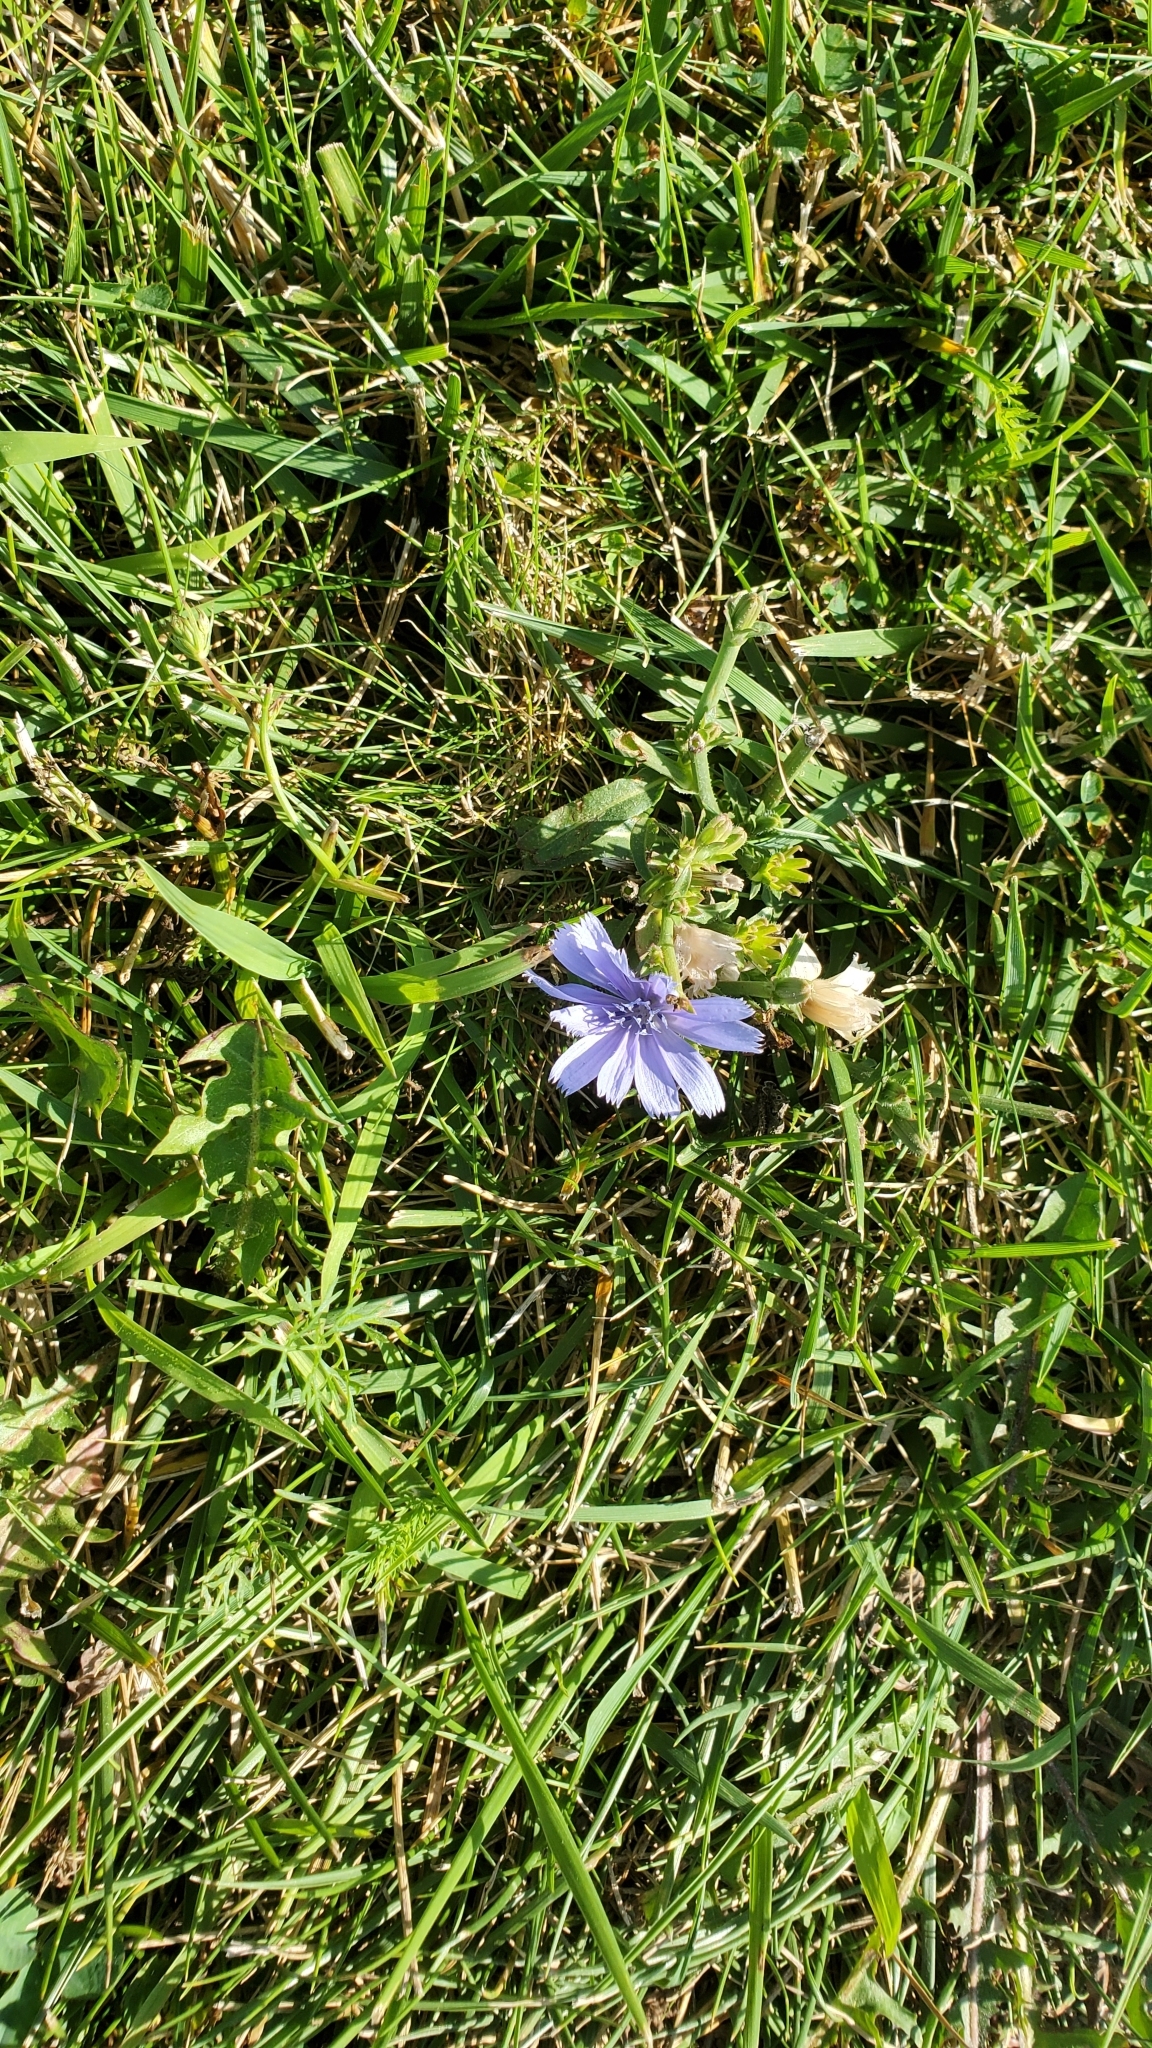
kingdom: Plantae
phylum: Tracheophyta
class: Magnoliopsida
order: Asterales
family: Asteraceae
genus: Cichorium
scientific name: Cichorium intybus
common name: Chicory
